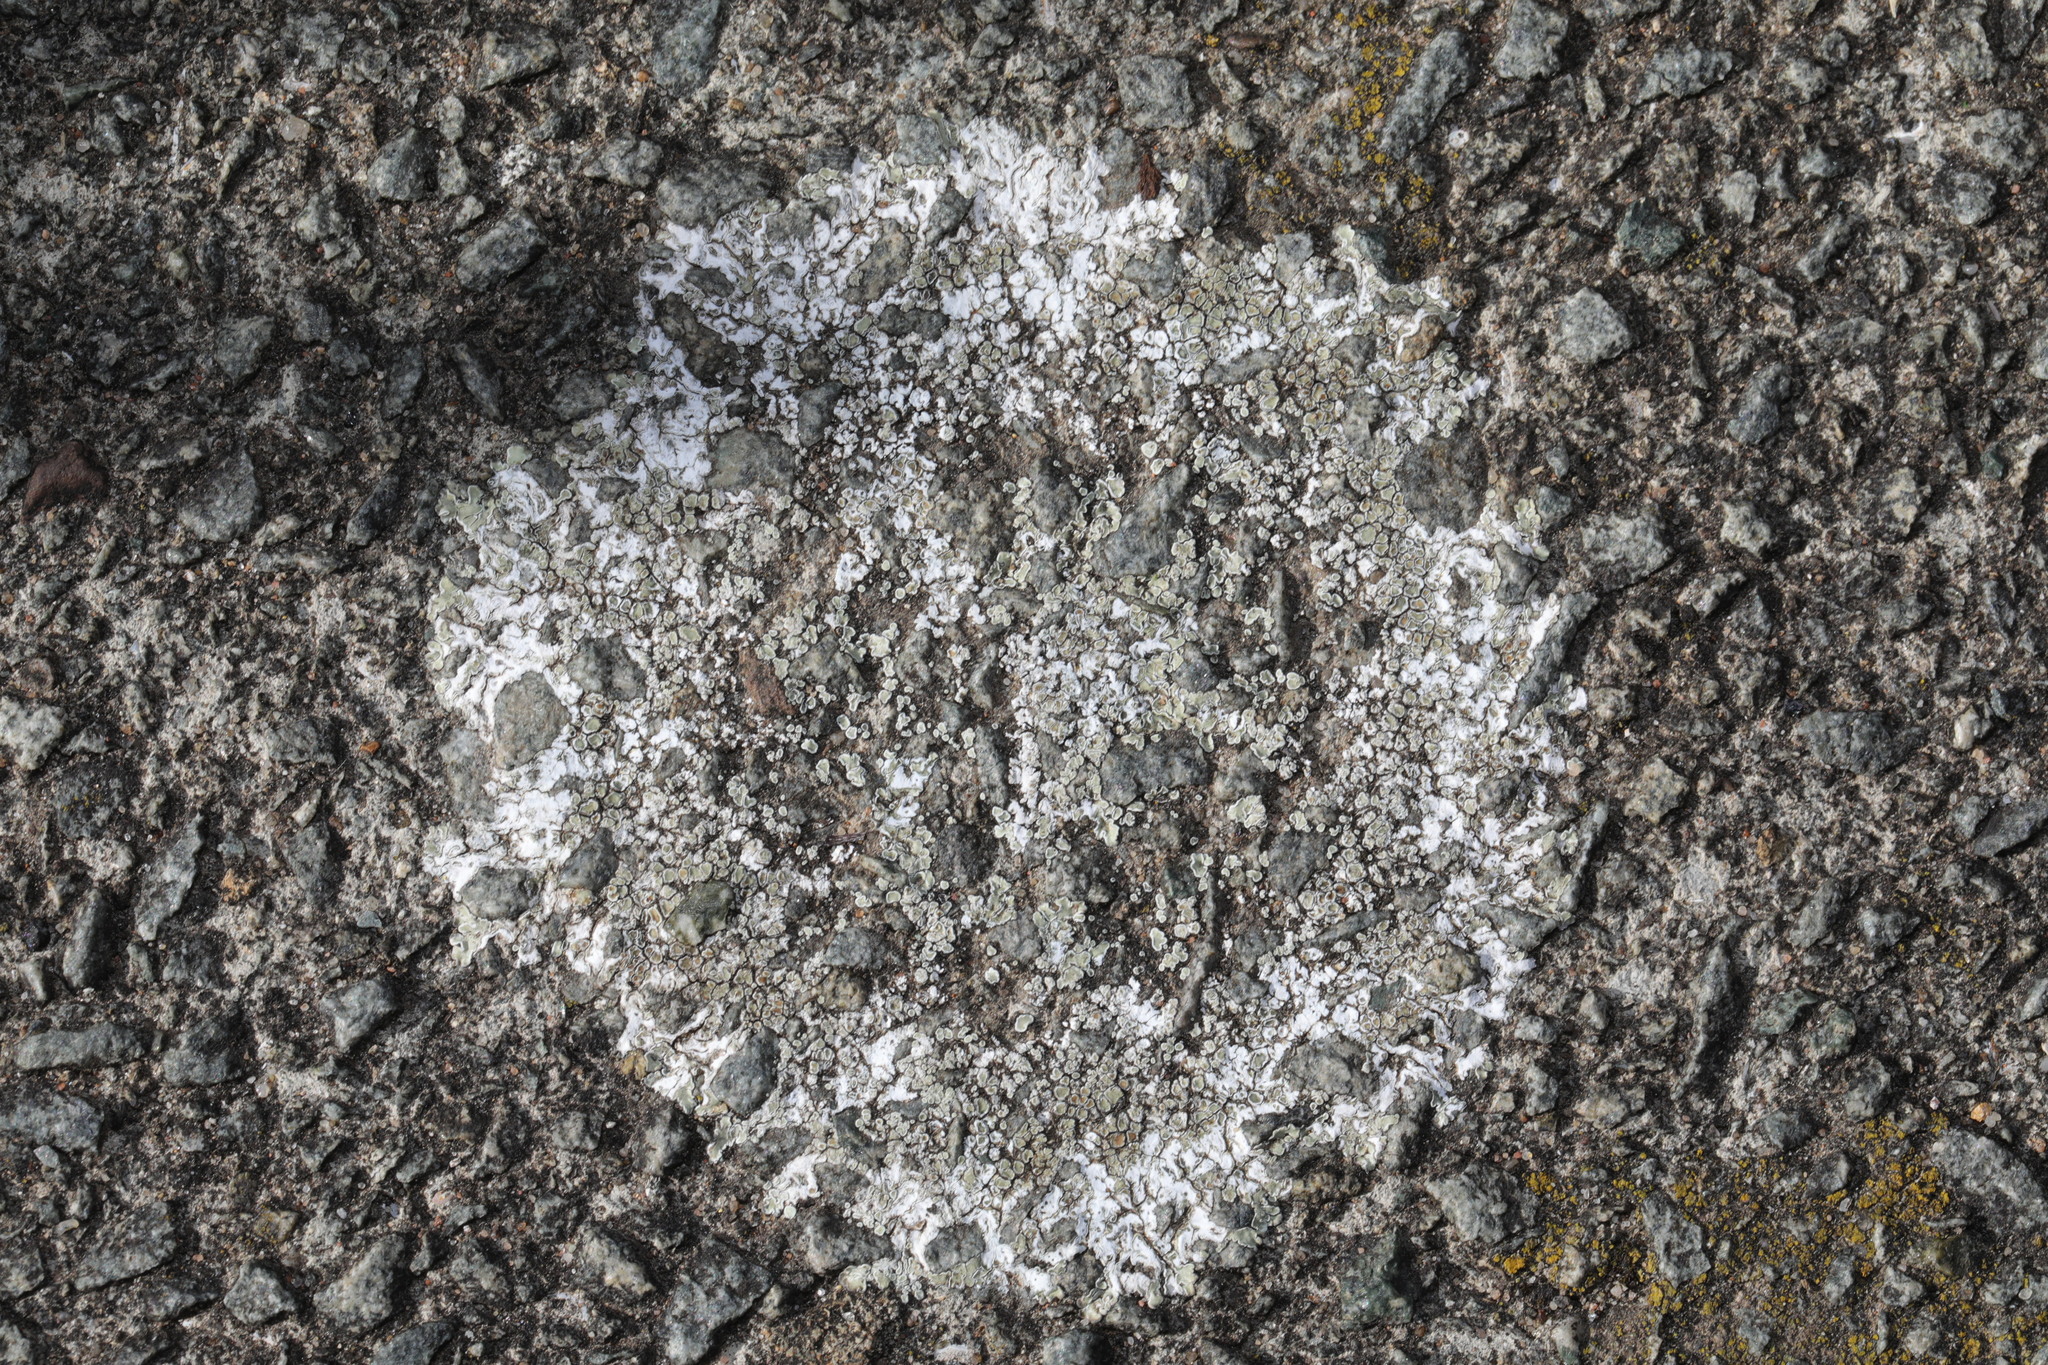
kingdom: Fungi
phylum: Ascomycota
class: Lecanoromycetes
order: Lecanorales
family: Lecanoraceae
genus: Protoparmeliopsis
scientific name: Protoparmeliopsis muralis
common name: Stonewall rim lichen
